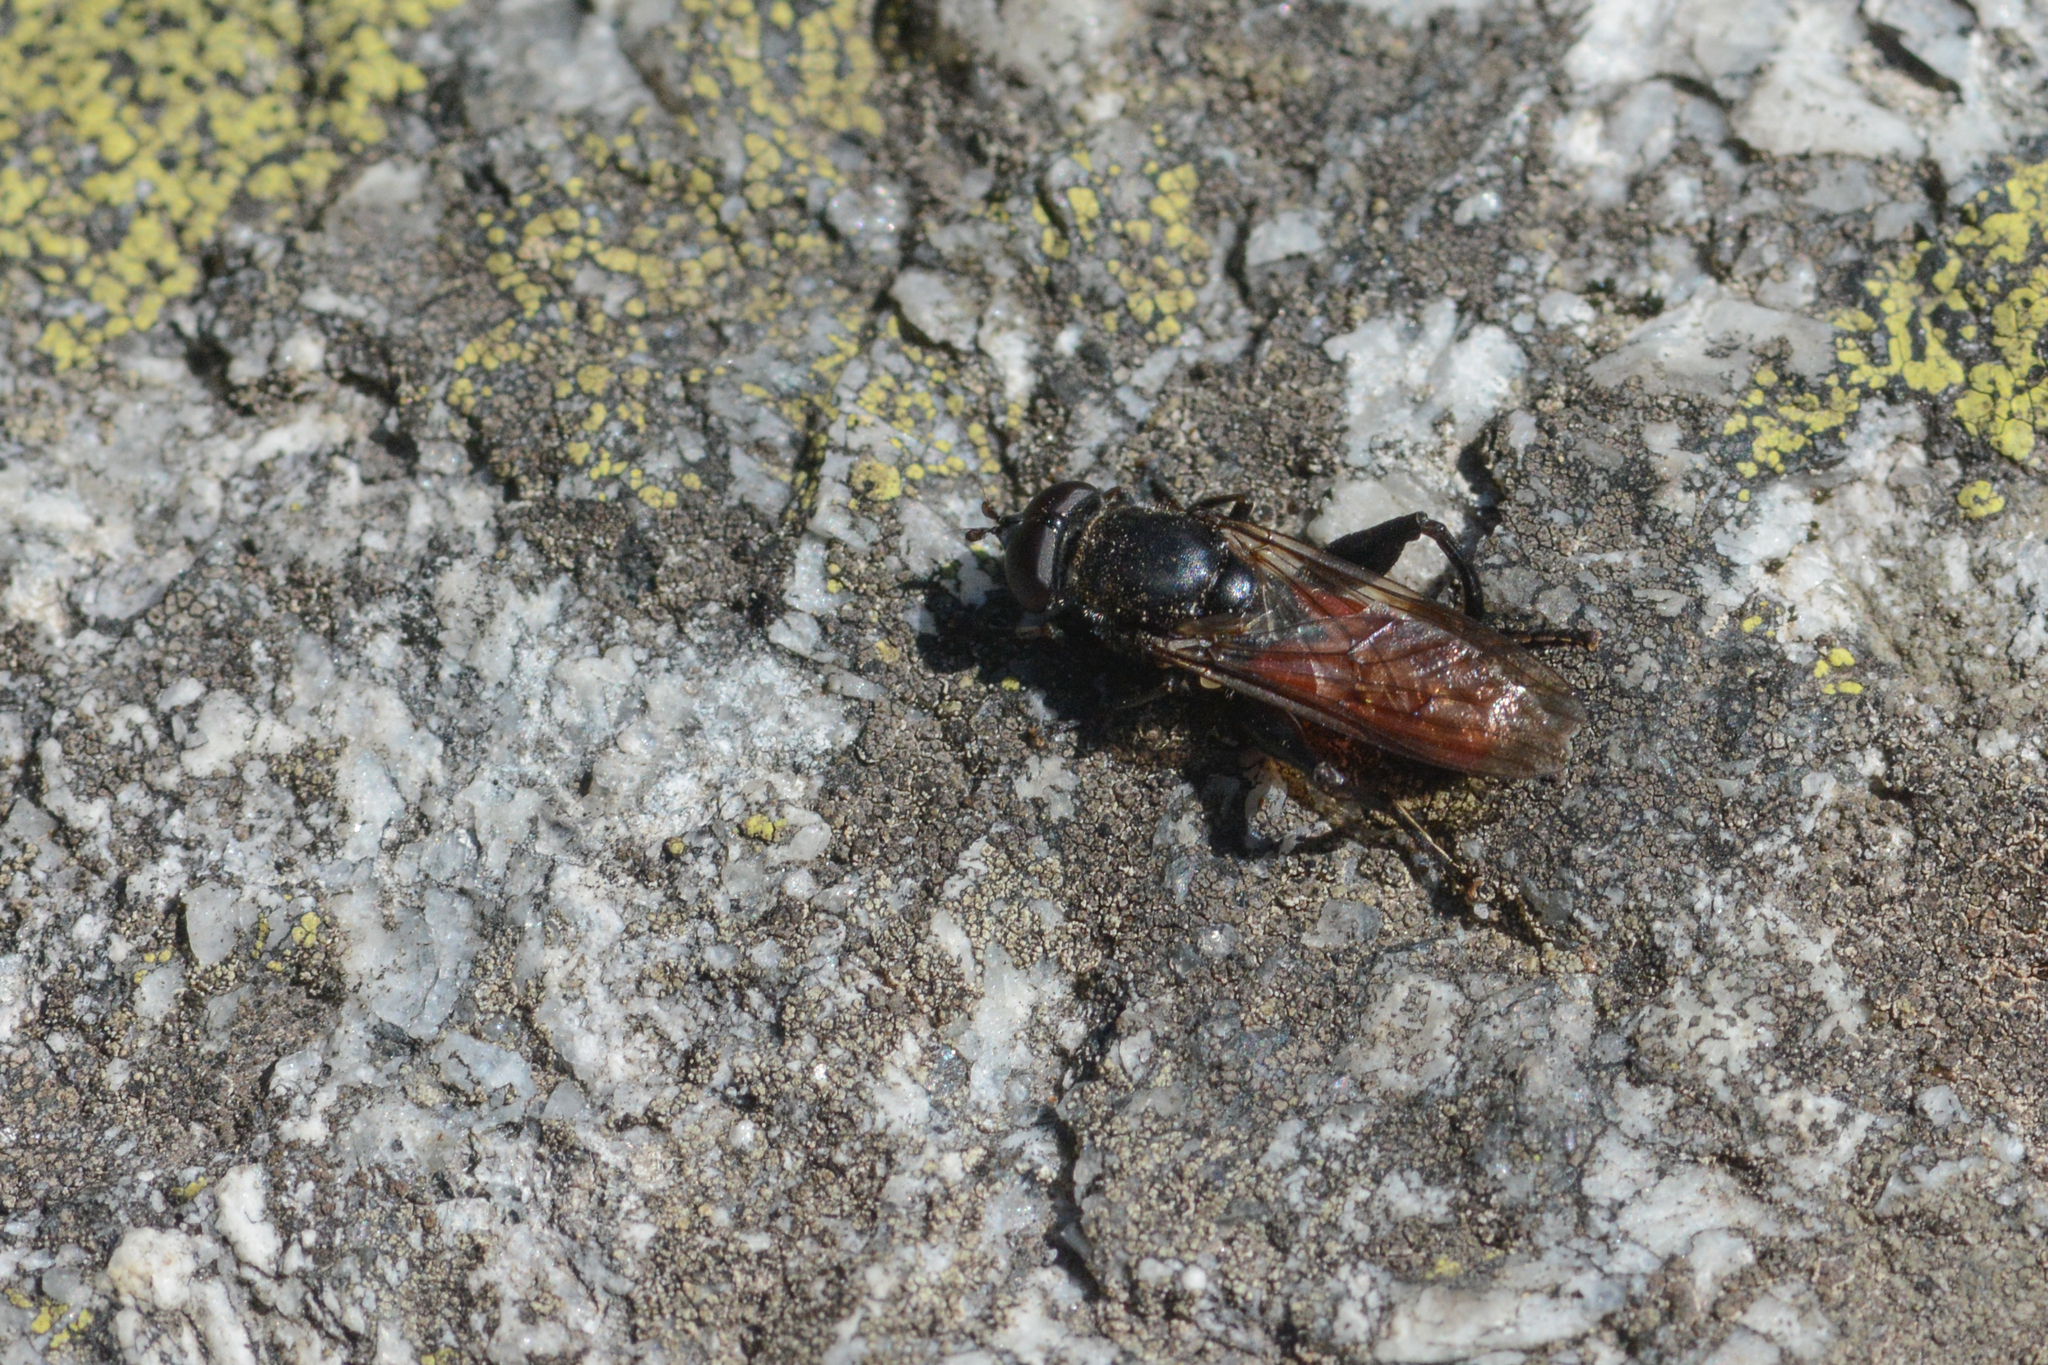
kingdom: Animalia
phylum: Arthropoda
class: Insecta
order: Diptera
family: Syrphidae
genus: Chalcosyrphus
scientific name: Chalcosyrphus piger
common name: Short-haired leafwalker
